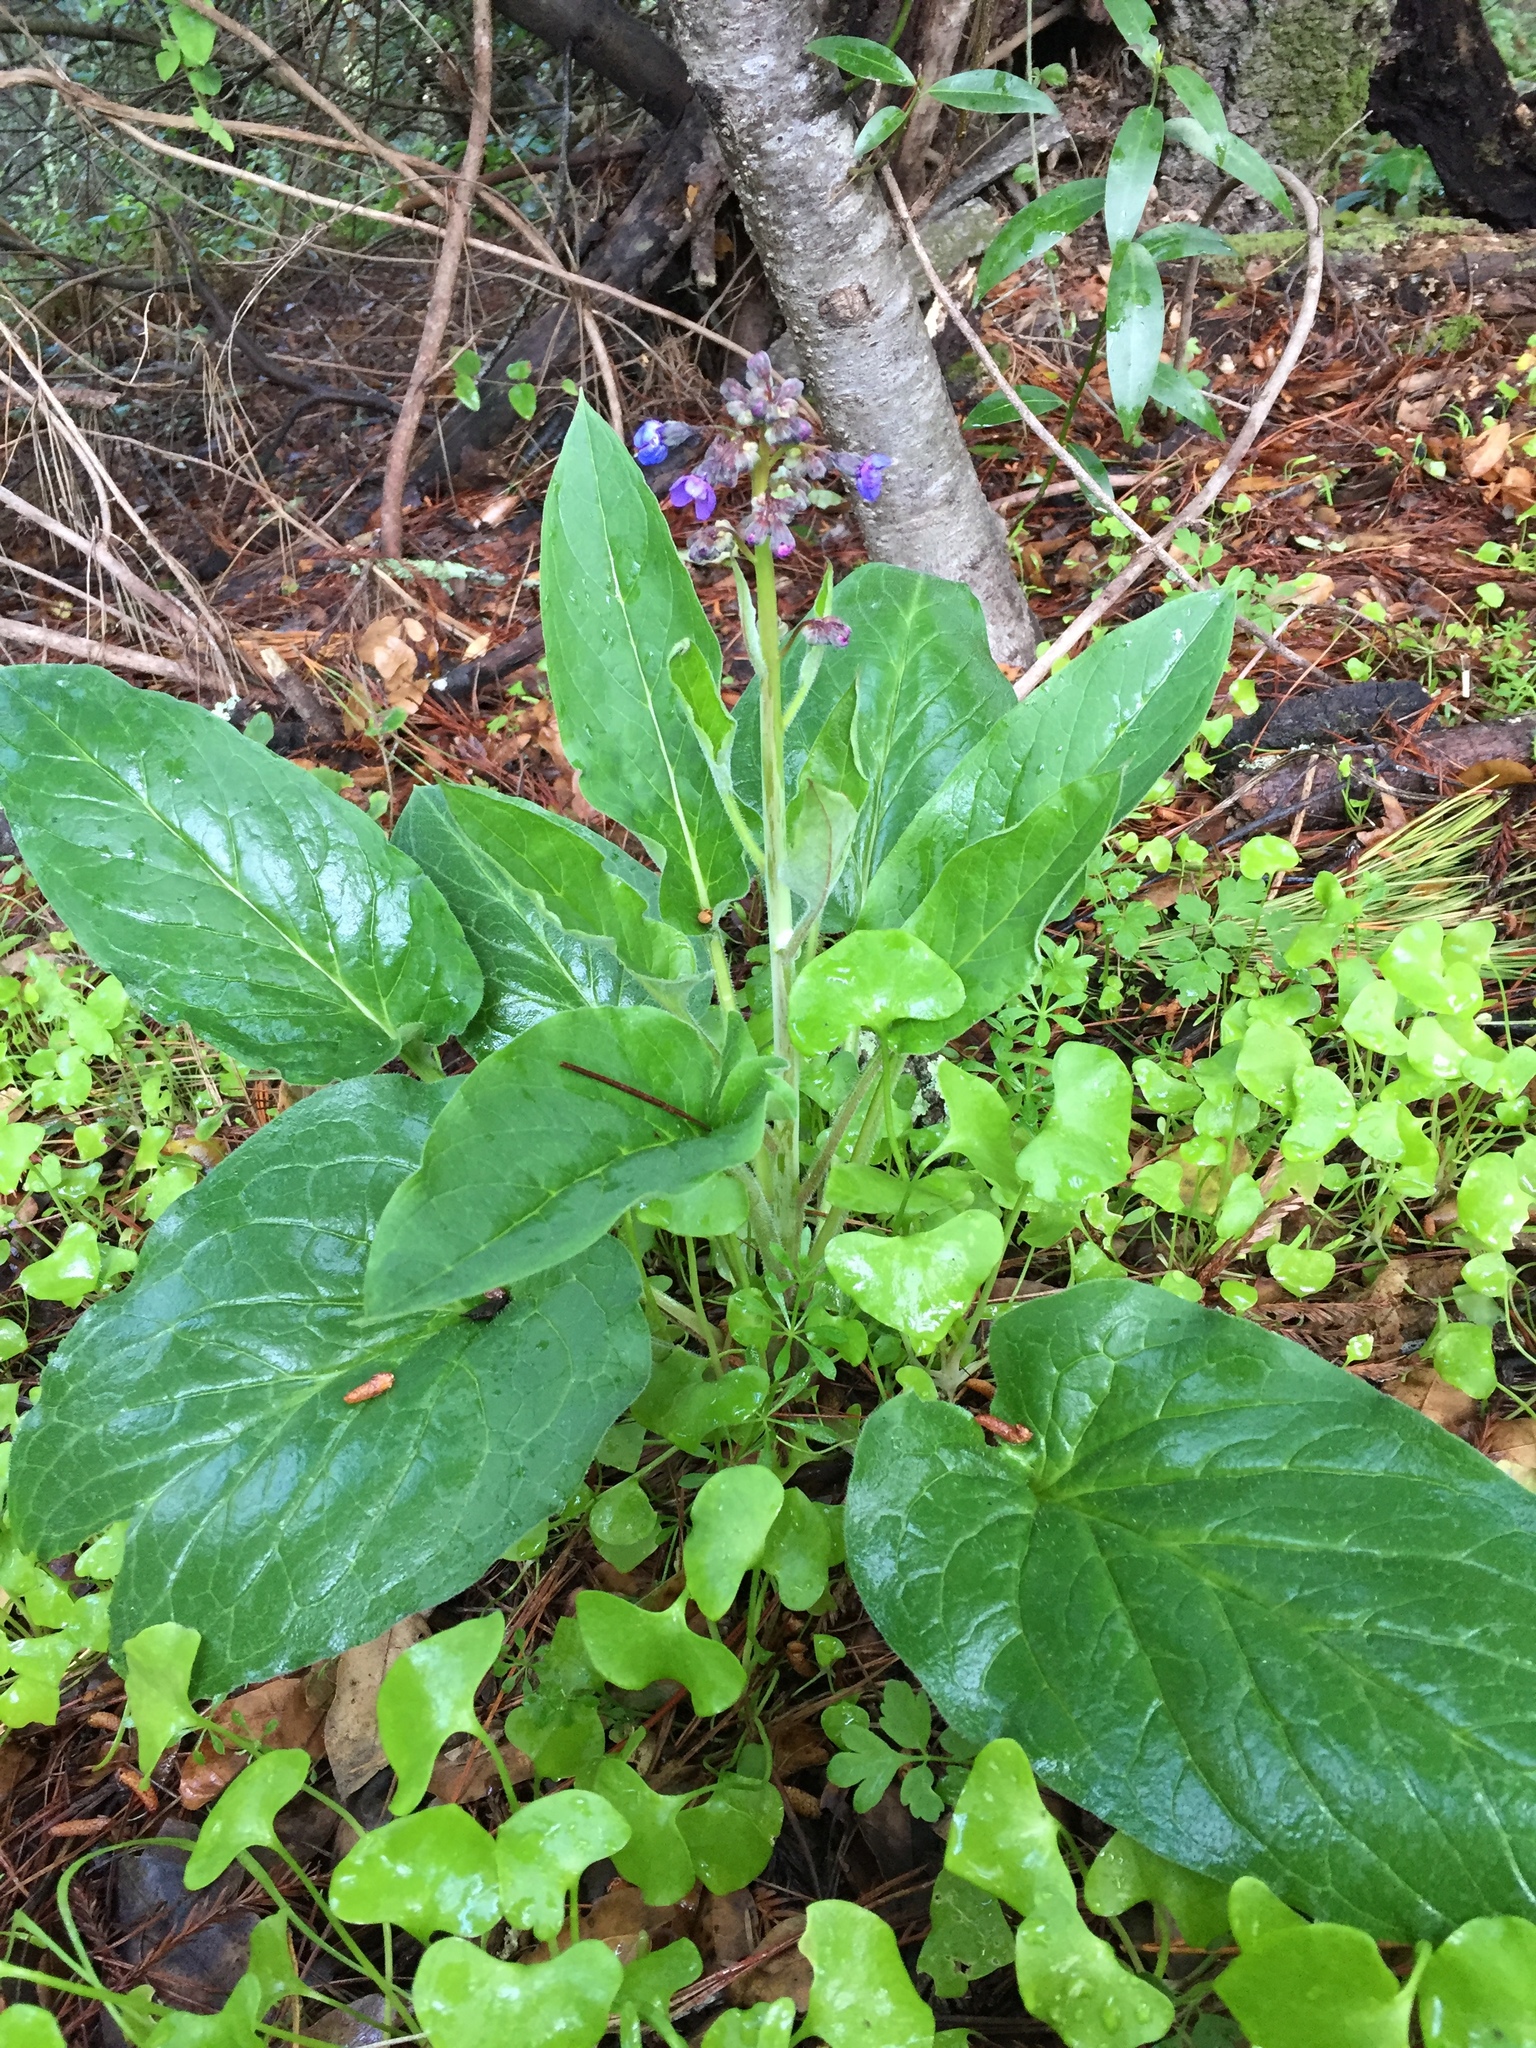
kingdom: Plantae
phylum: Tracheophyta
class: Magnoliopsida
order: Boraginales
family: Boraginaceae
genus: Adelinia
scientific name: Adelinia grande
